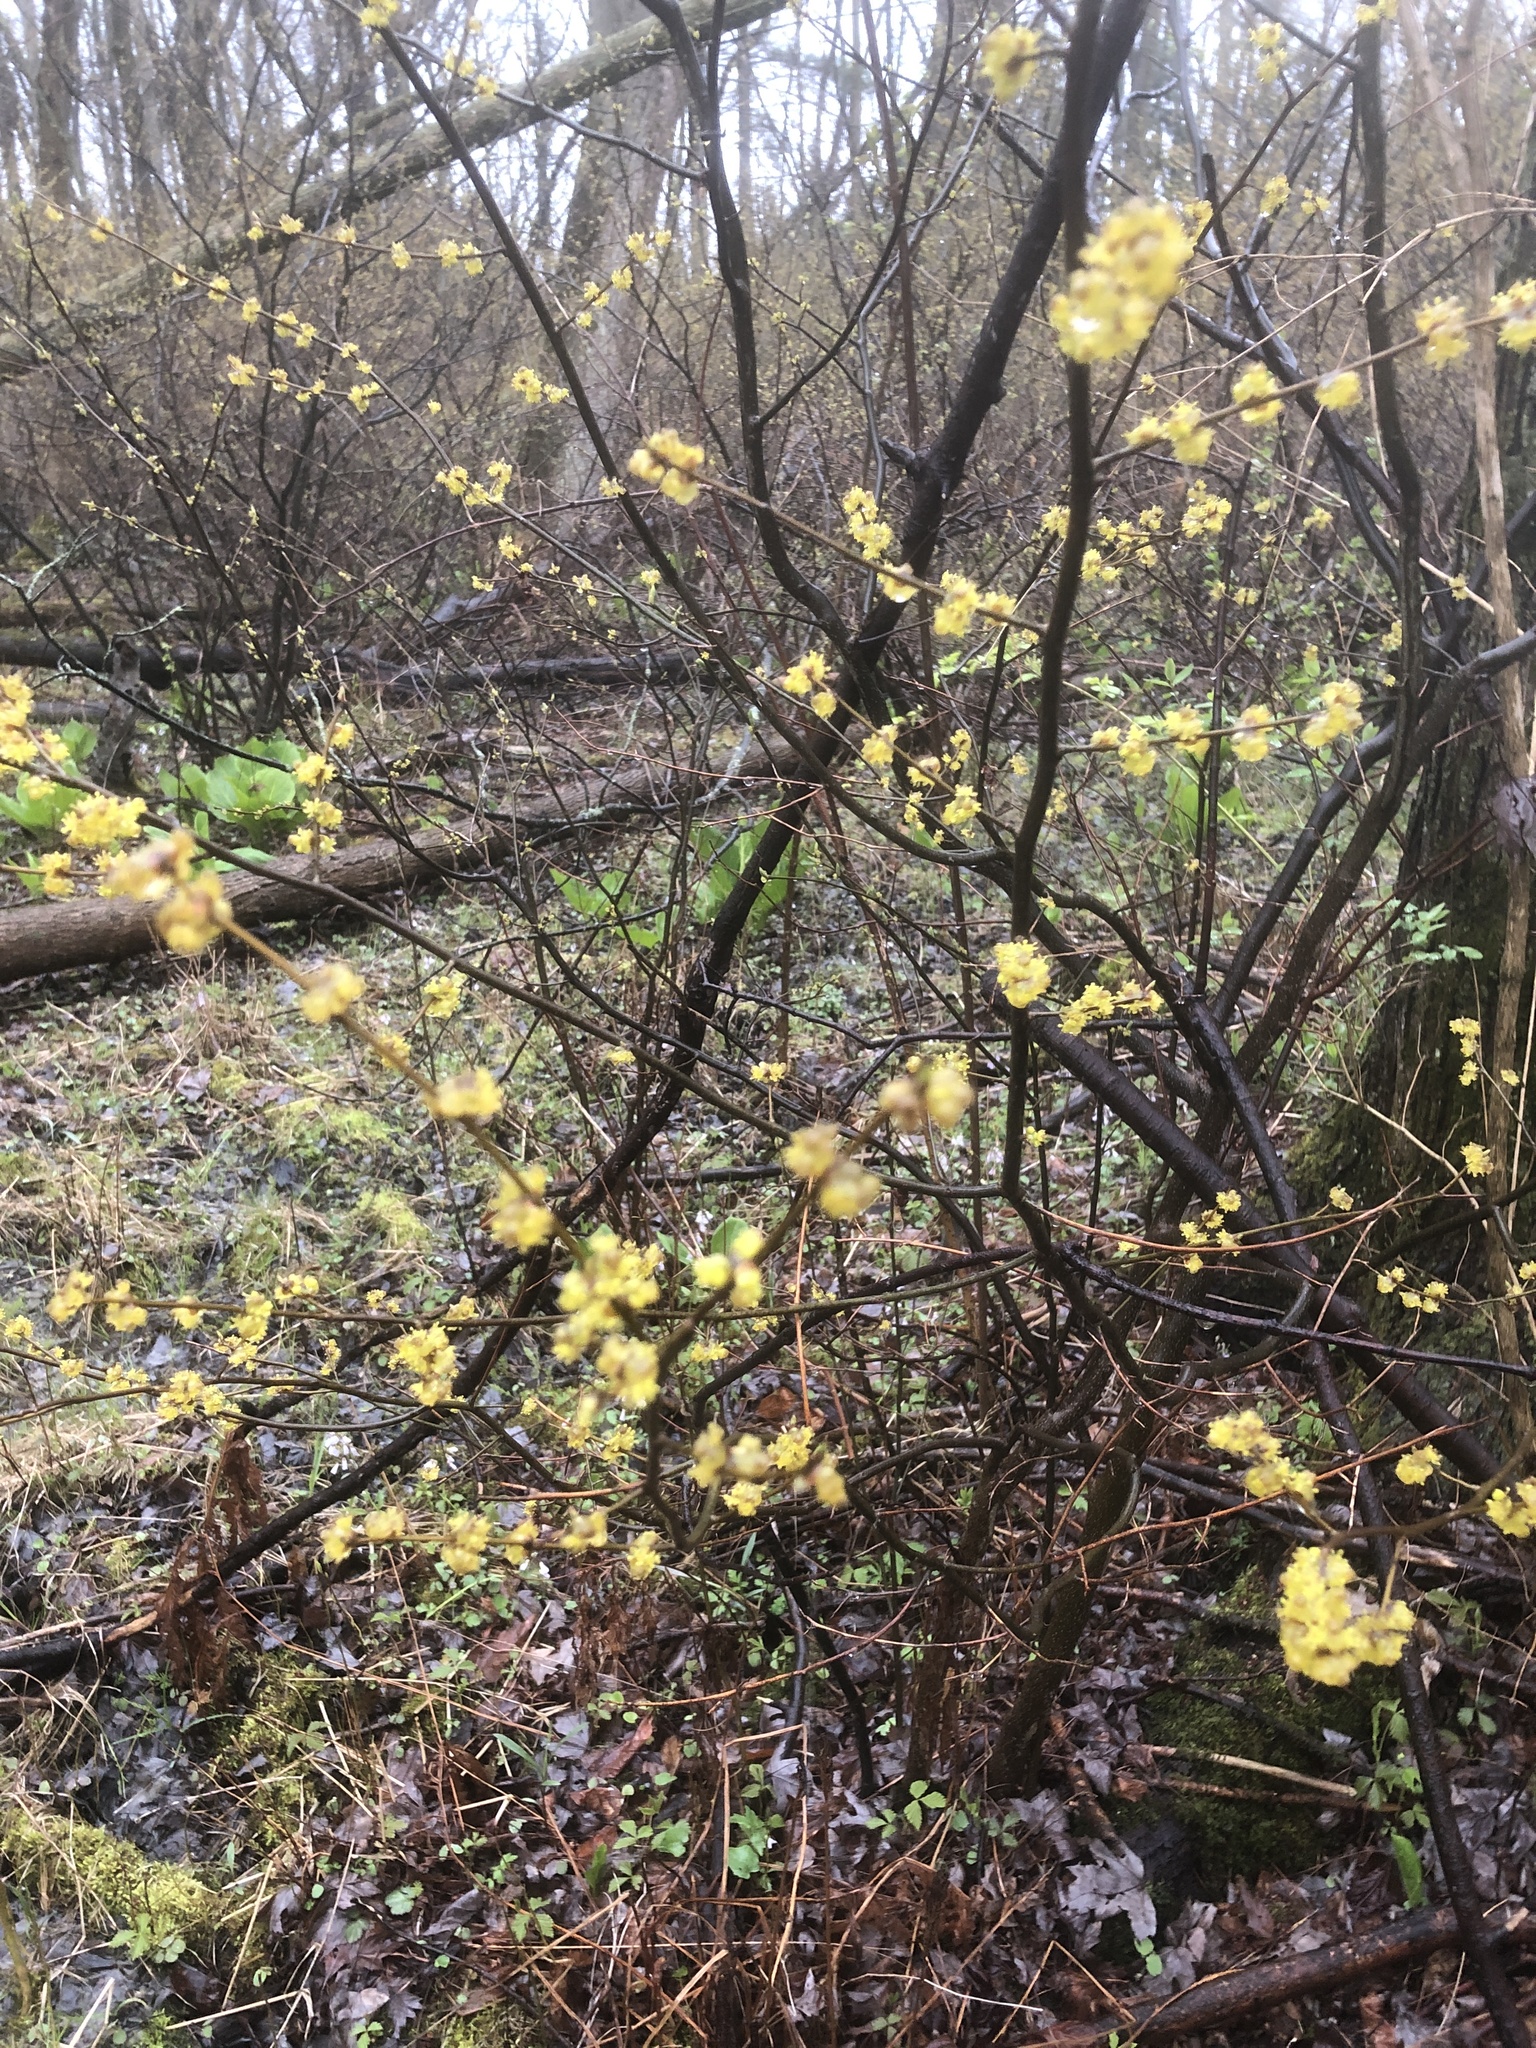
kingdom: Plantae
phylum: Tracheophyta
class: Magnoliopsida
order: Laurales
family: Lauraceae
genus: Lindera
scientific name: Lindera benzoin
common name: Spicebush
